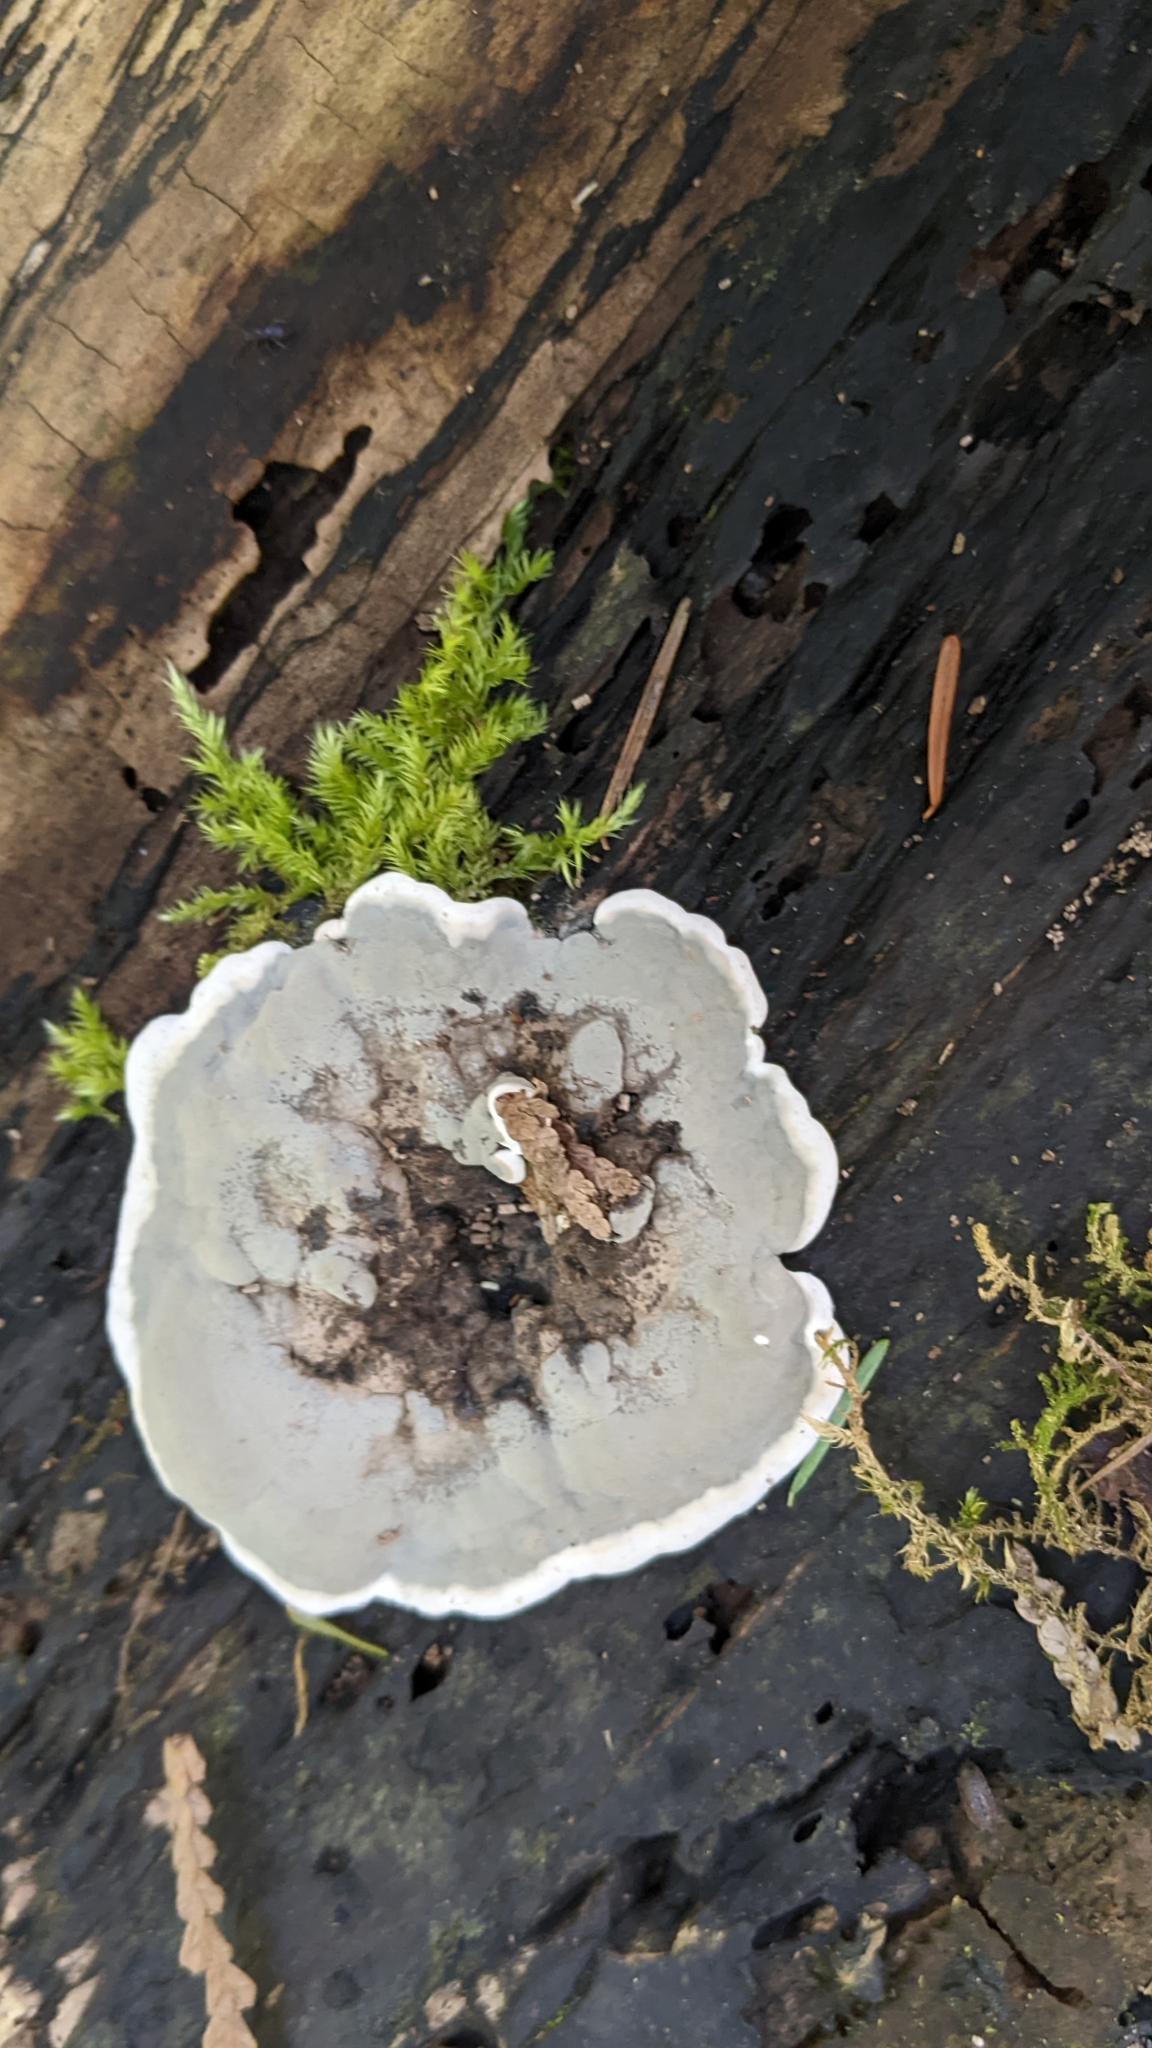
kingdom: Fungi
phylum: Ascomycota
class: Sordariomycetes
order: Xylariales
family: Xylariaceae
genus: Kretzschmaria
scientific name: Kretzschmaria deusta
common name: Brittle cinder
